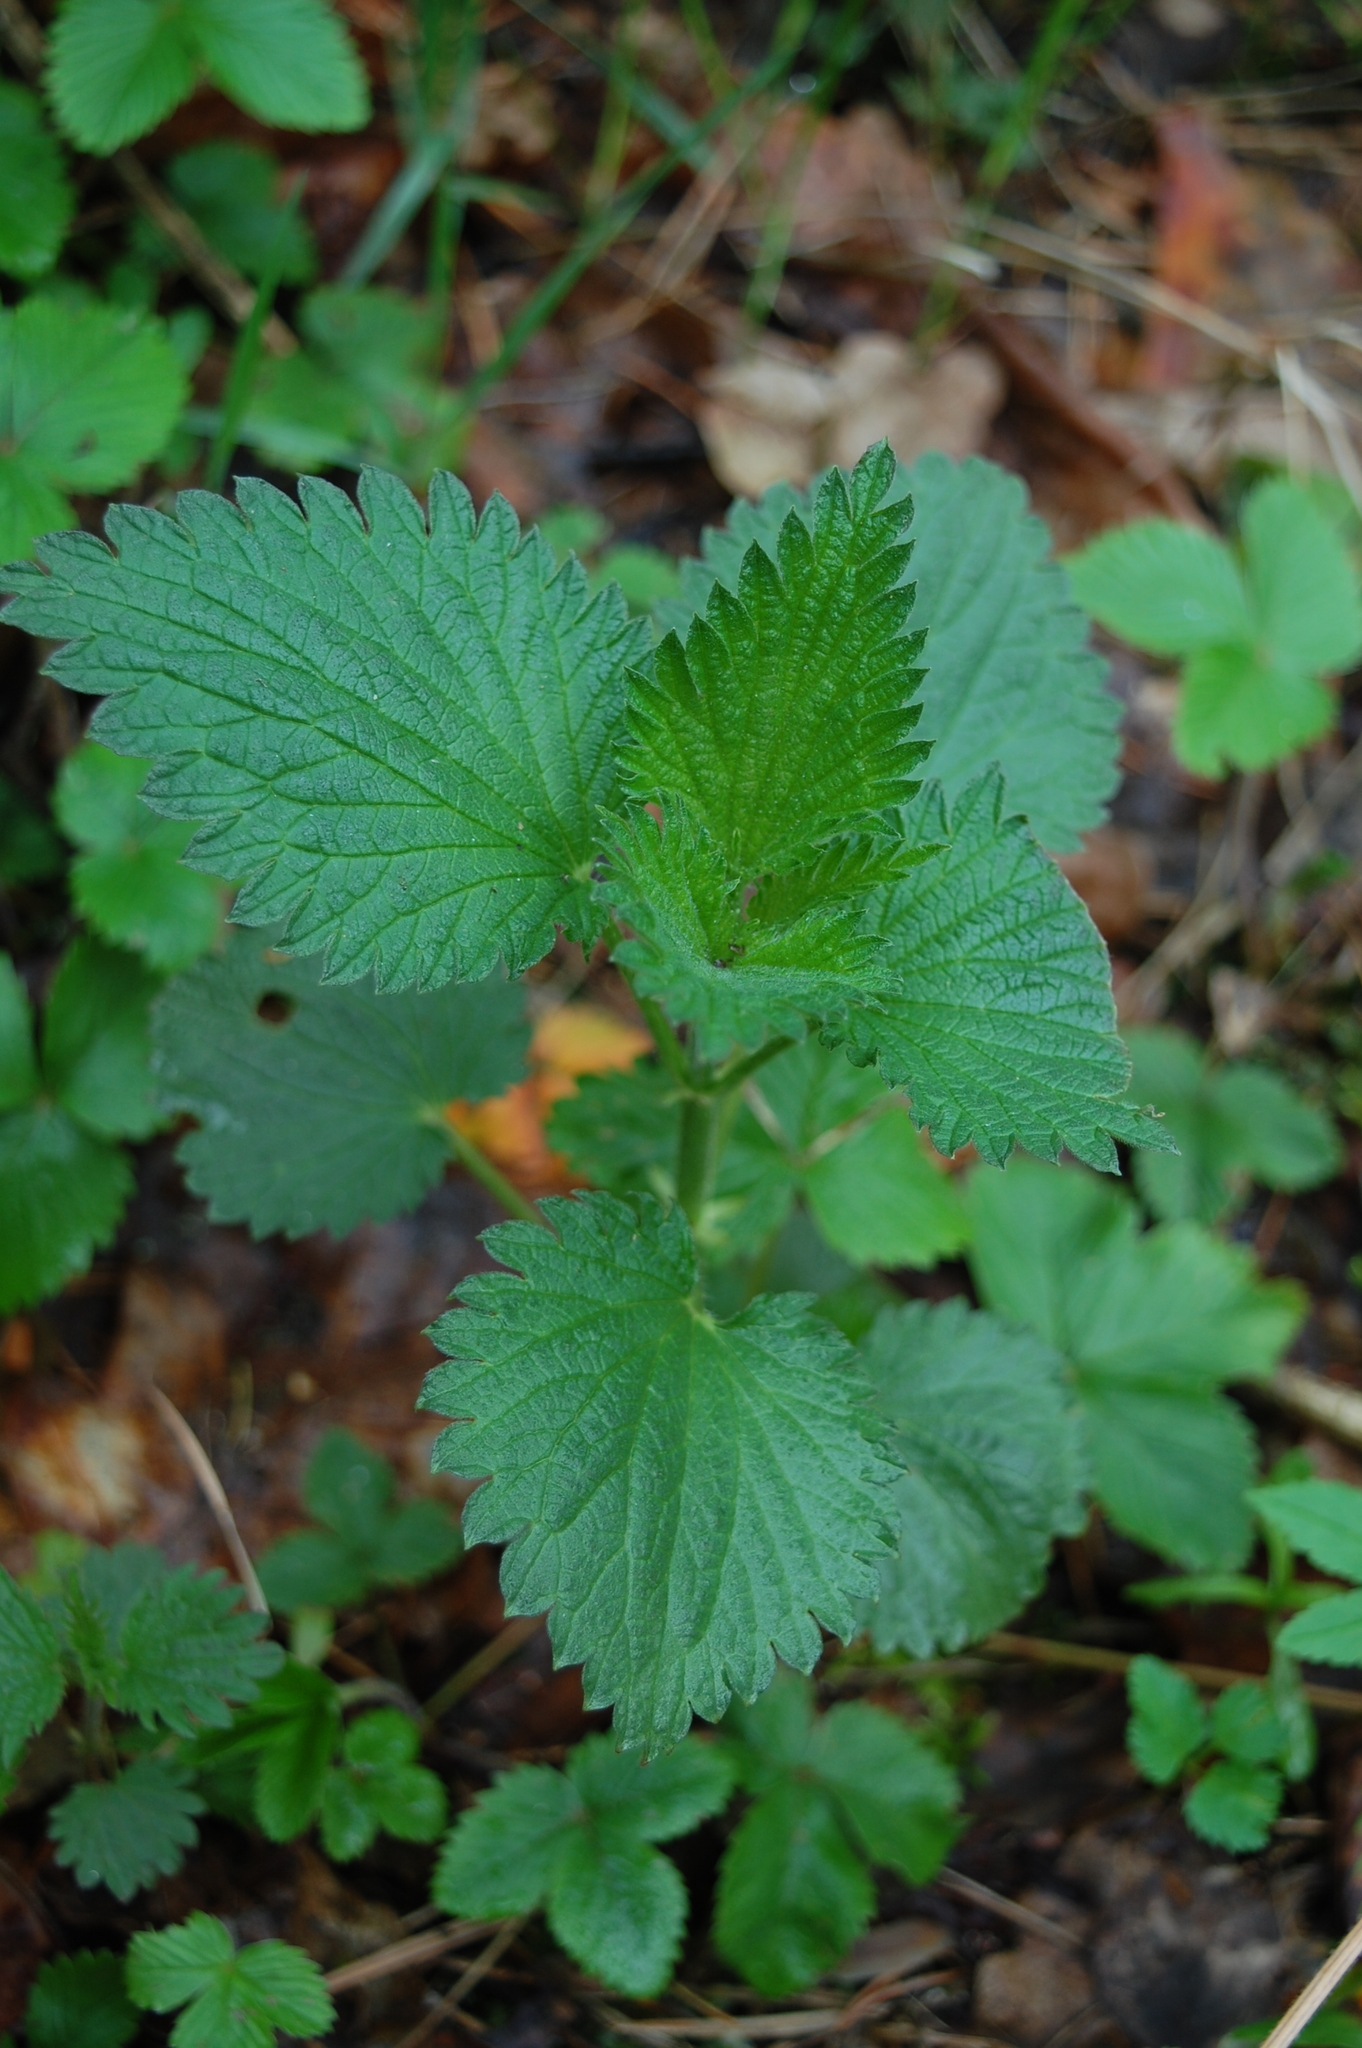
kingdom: Plantae
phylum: Tracheophyta
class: Magnoliopsida
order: Rosales
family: Urticaceae
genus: Urtica
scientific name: Urtica dioica
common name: Common nettle
